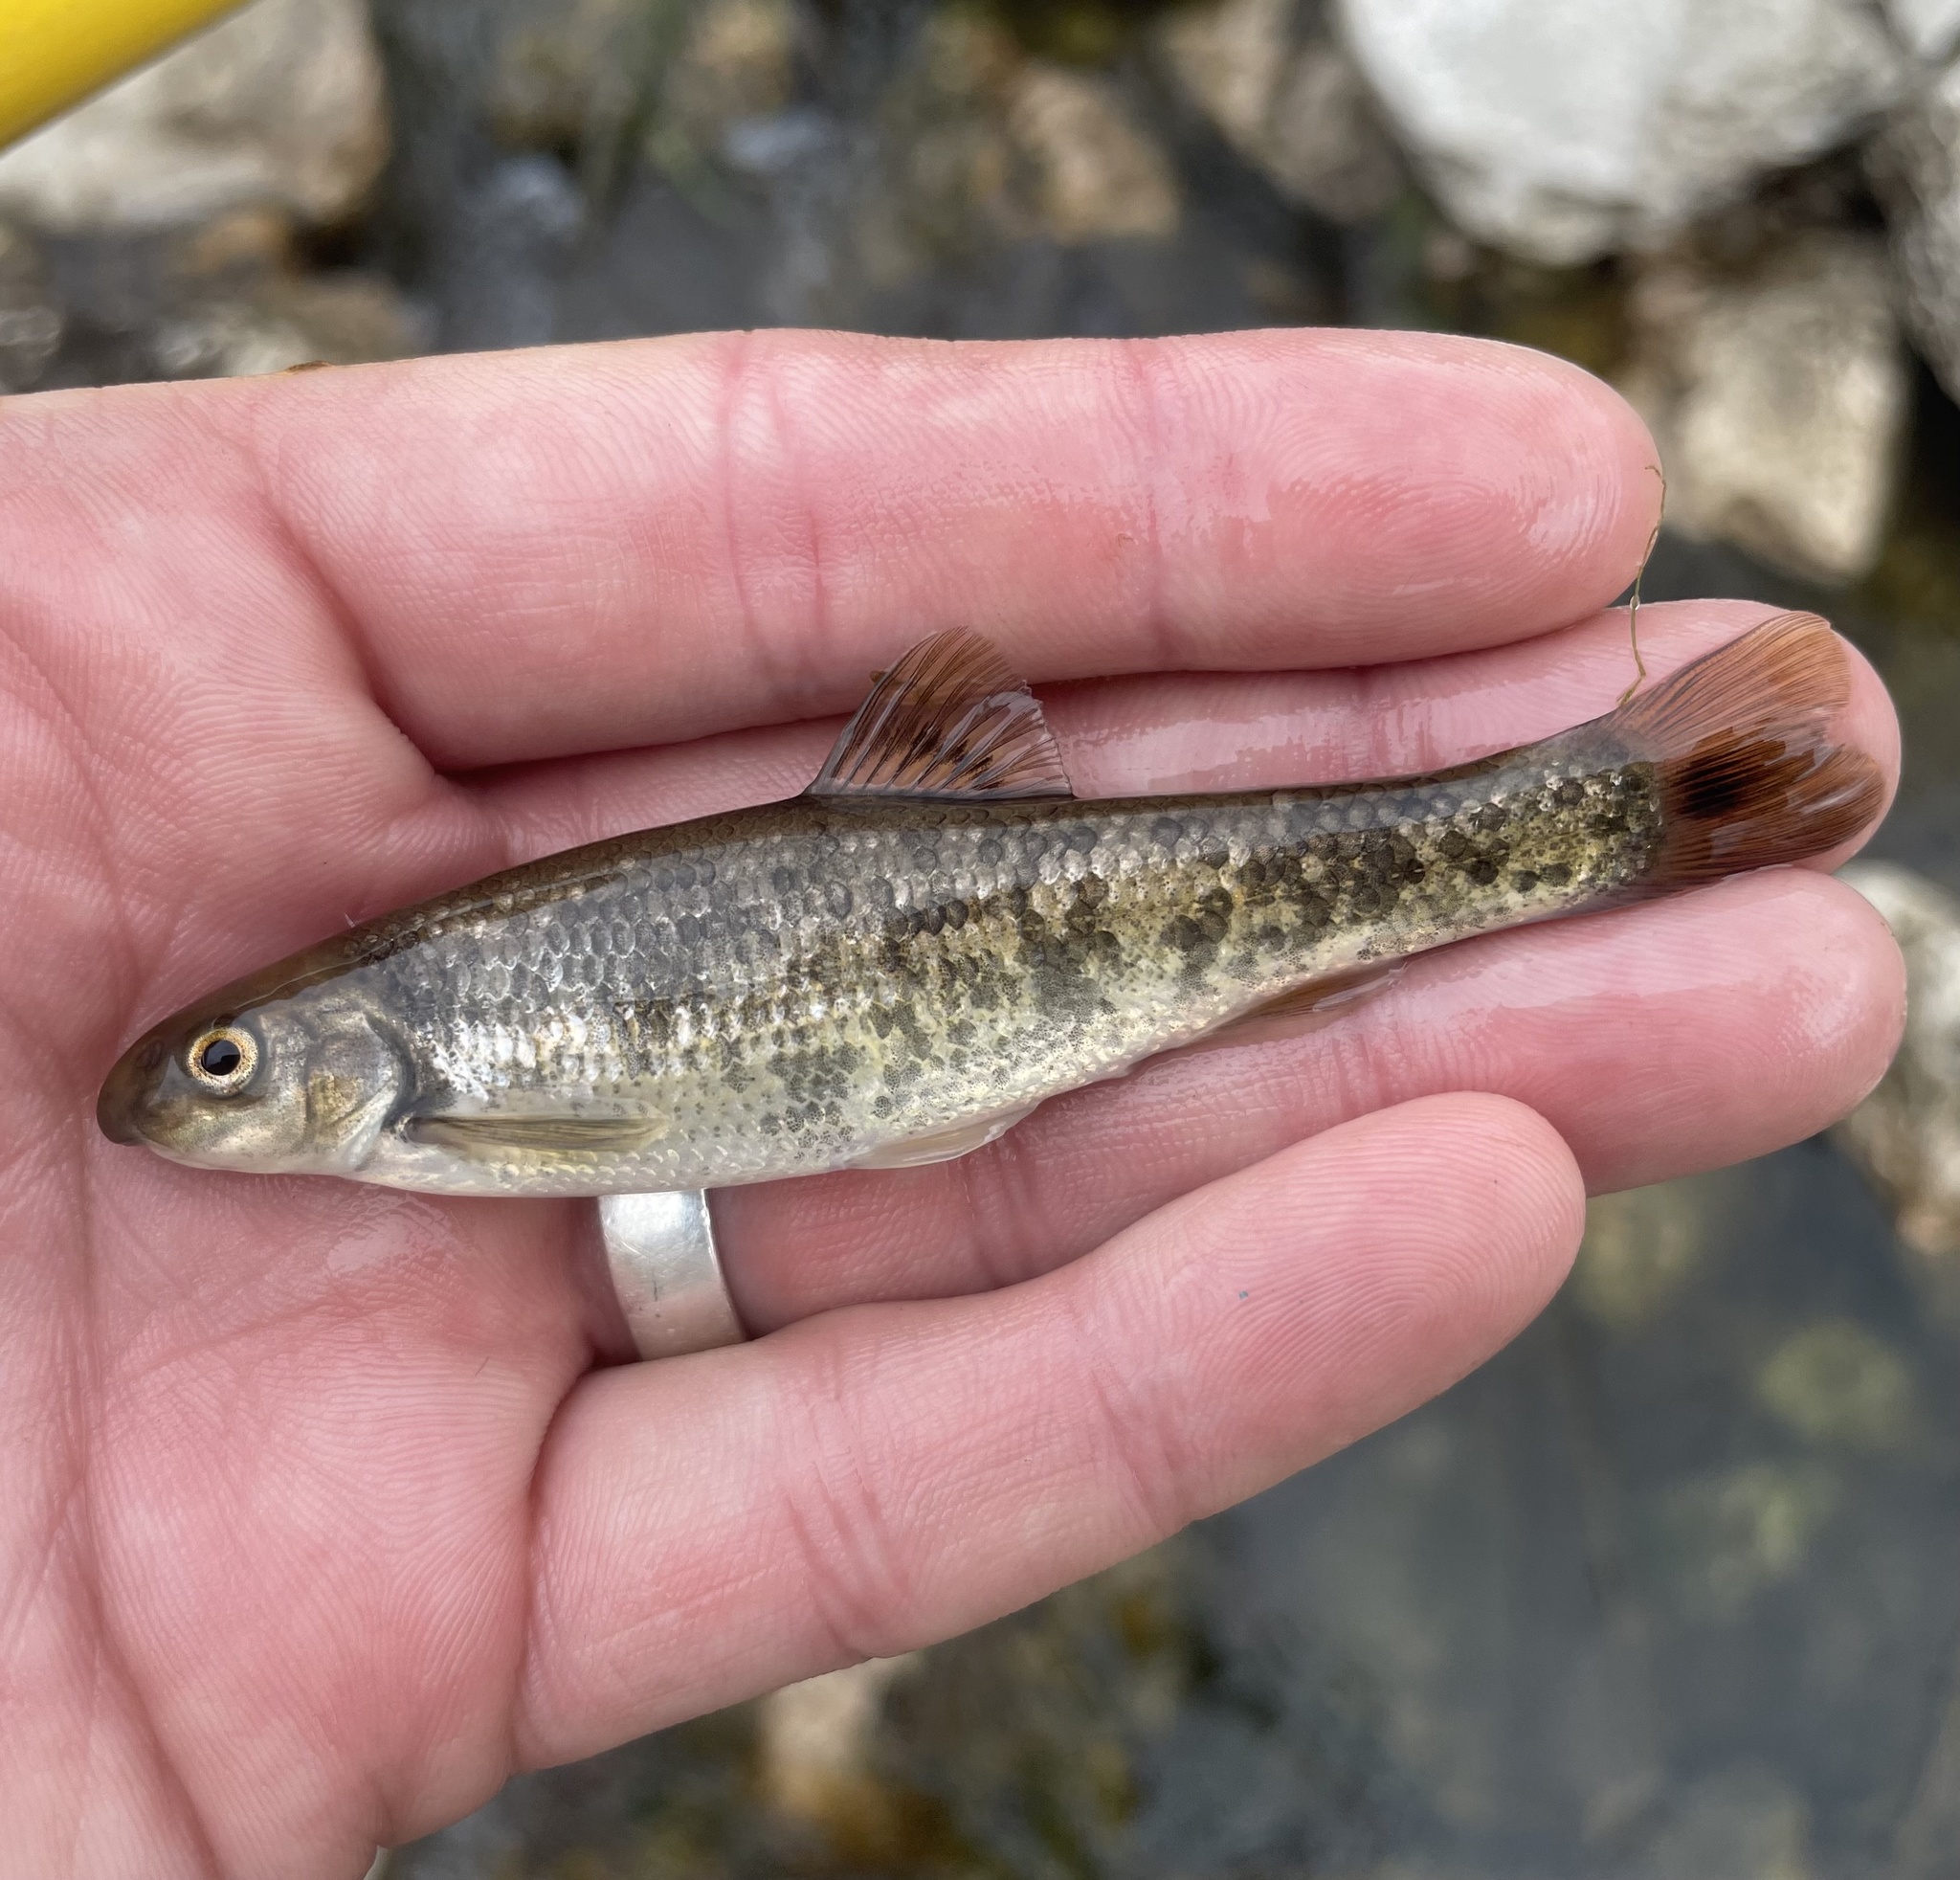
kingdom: Animalia
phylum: Chordata
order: Cypriniformes
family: Cyprinidae
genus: Campostoma
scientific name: Campostoma anomalum
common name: Central stoneroller
